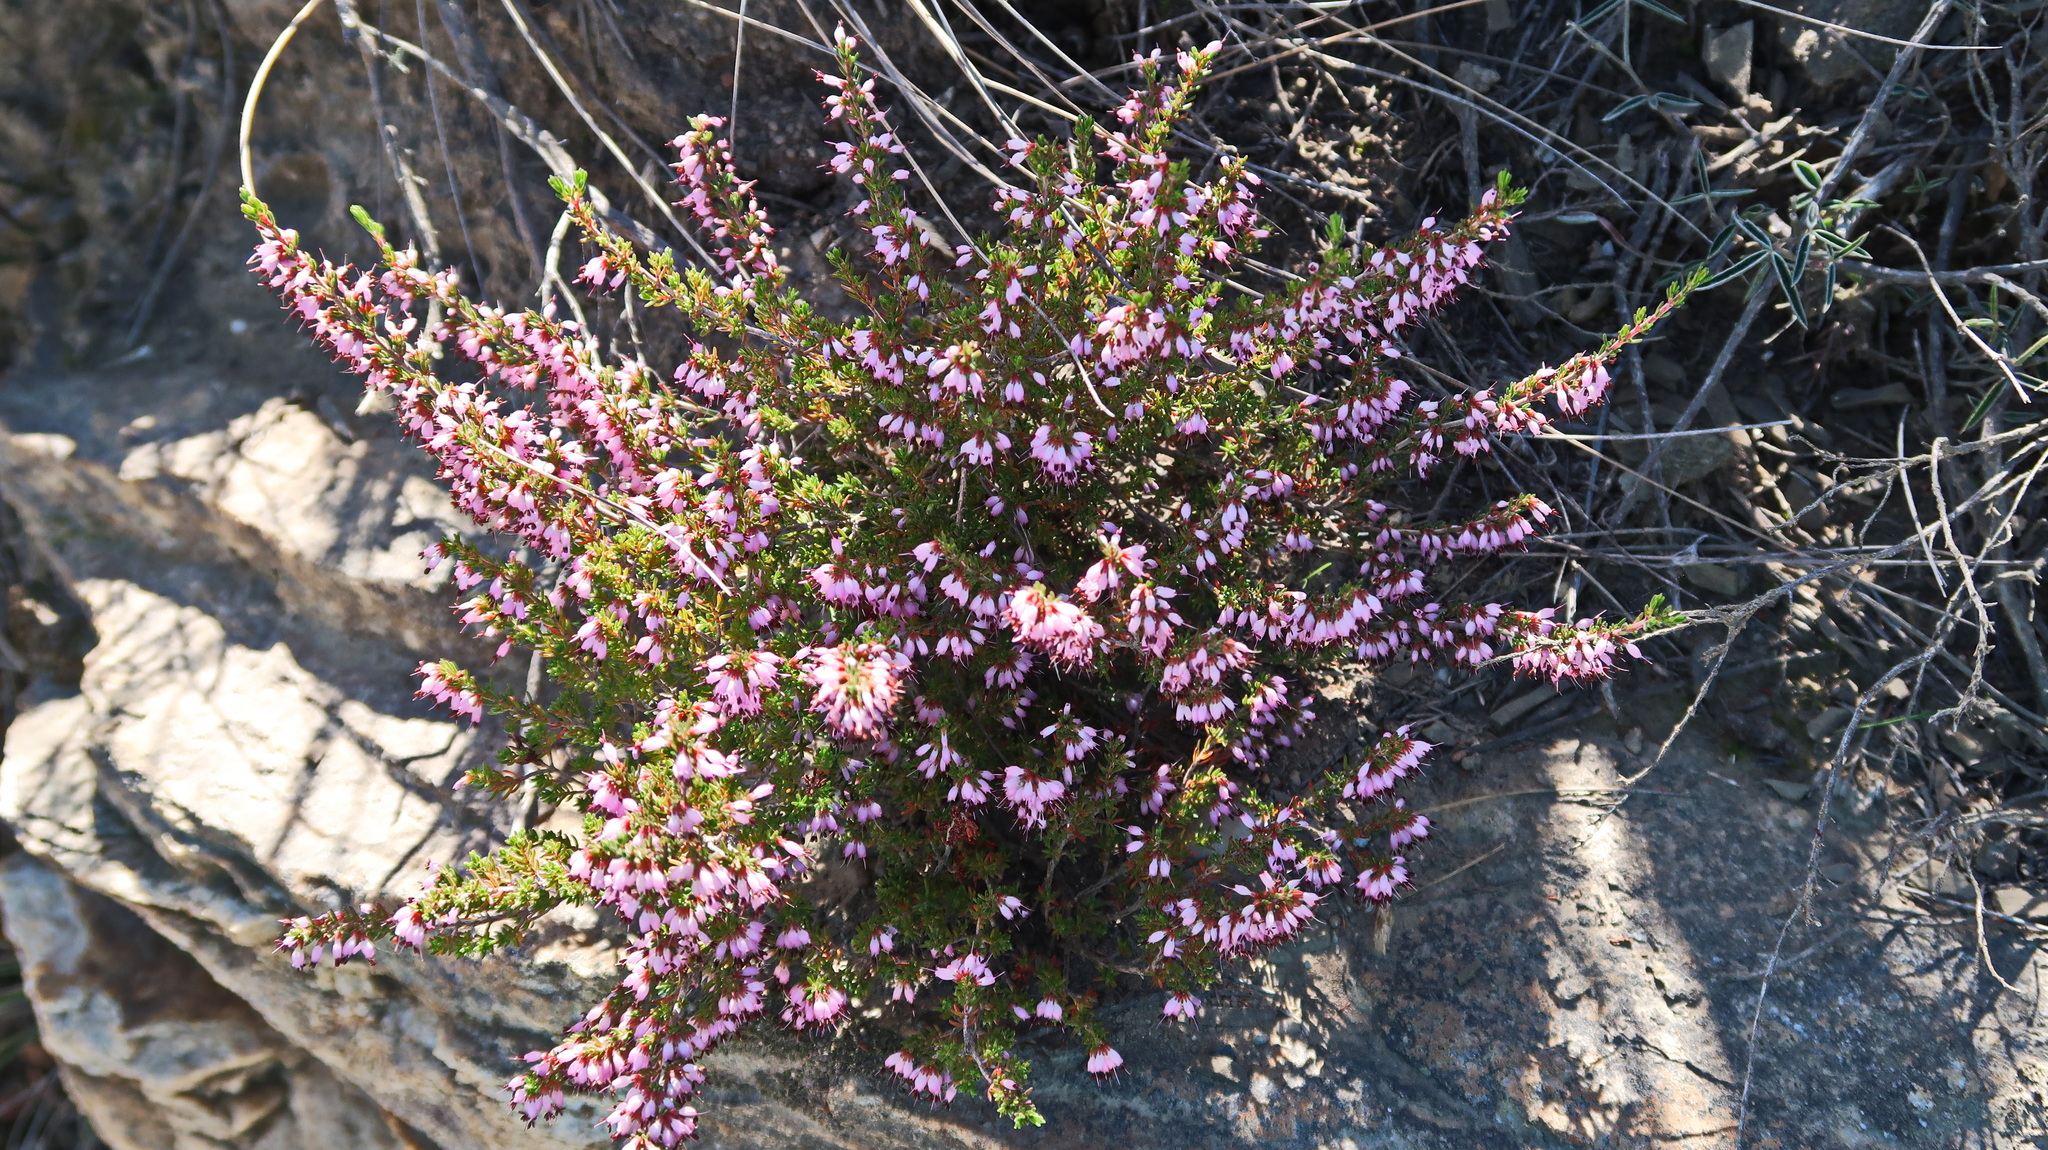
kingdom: Plantae
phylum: Tracheophyta
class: Magnoliopsida
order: Ericales
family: Ericaceae
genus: Erica
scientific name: Erica anguliger
